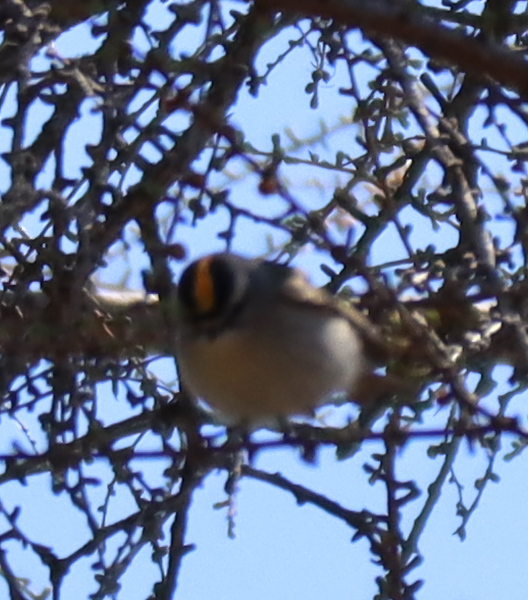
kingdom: Animalia
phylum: Chordata
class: Aves
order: Passeriformes
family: Regulidae
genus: Regulus
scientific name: Regulus satrapa
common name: Golden-crowned kinglet
